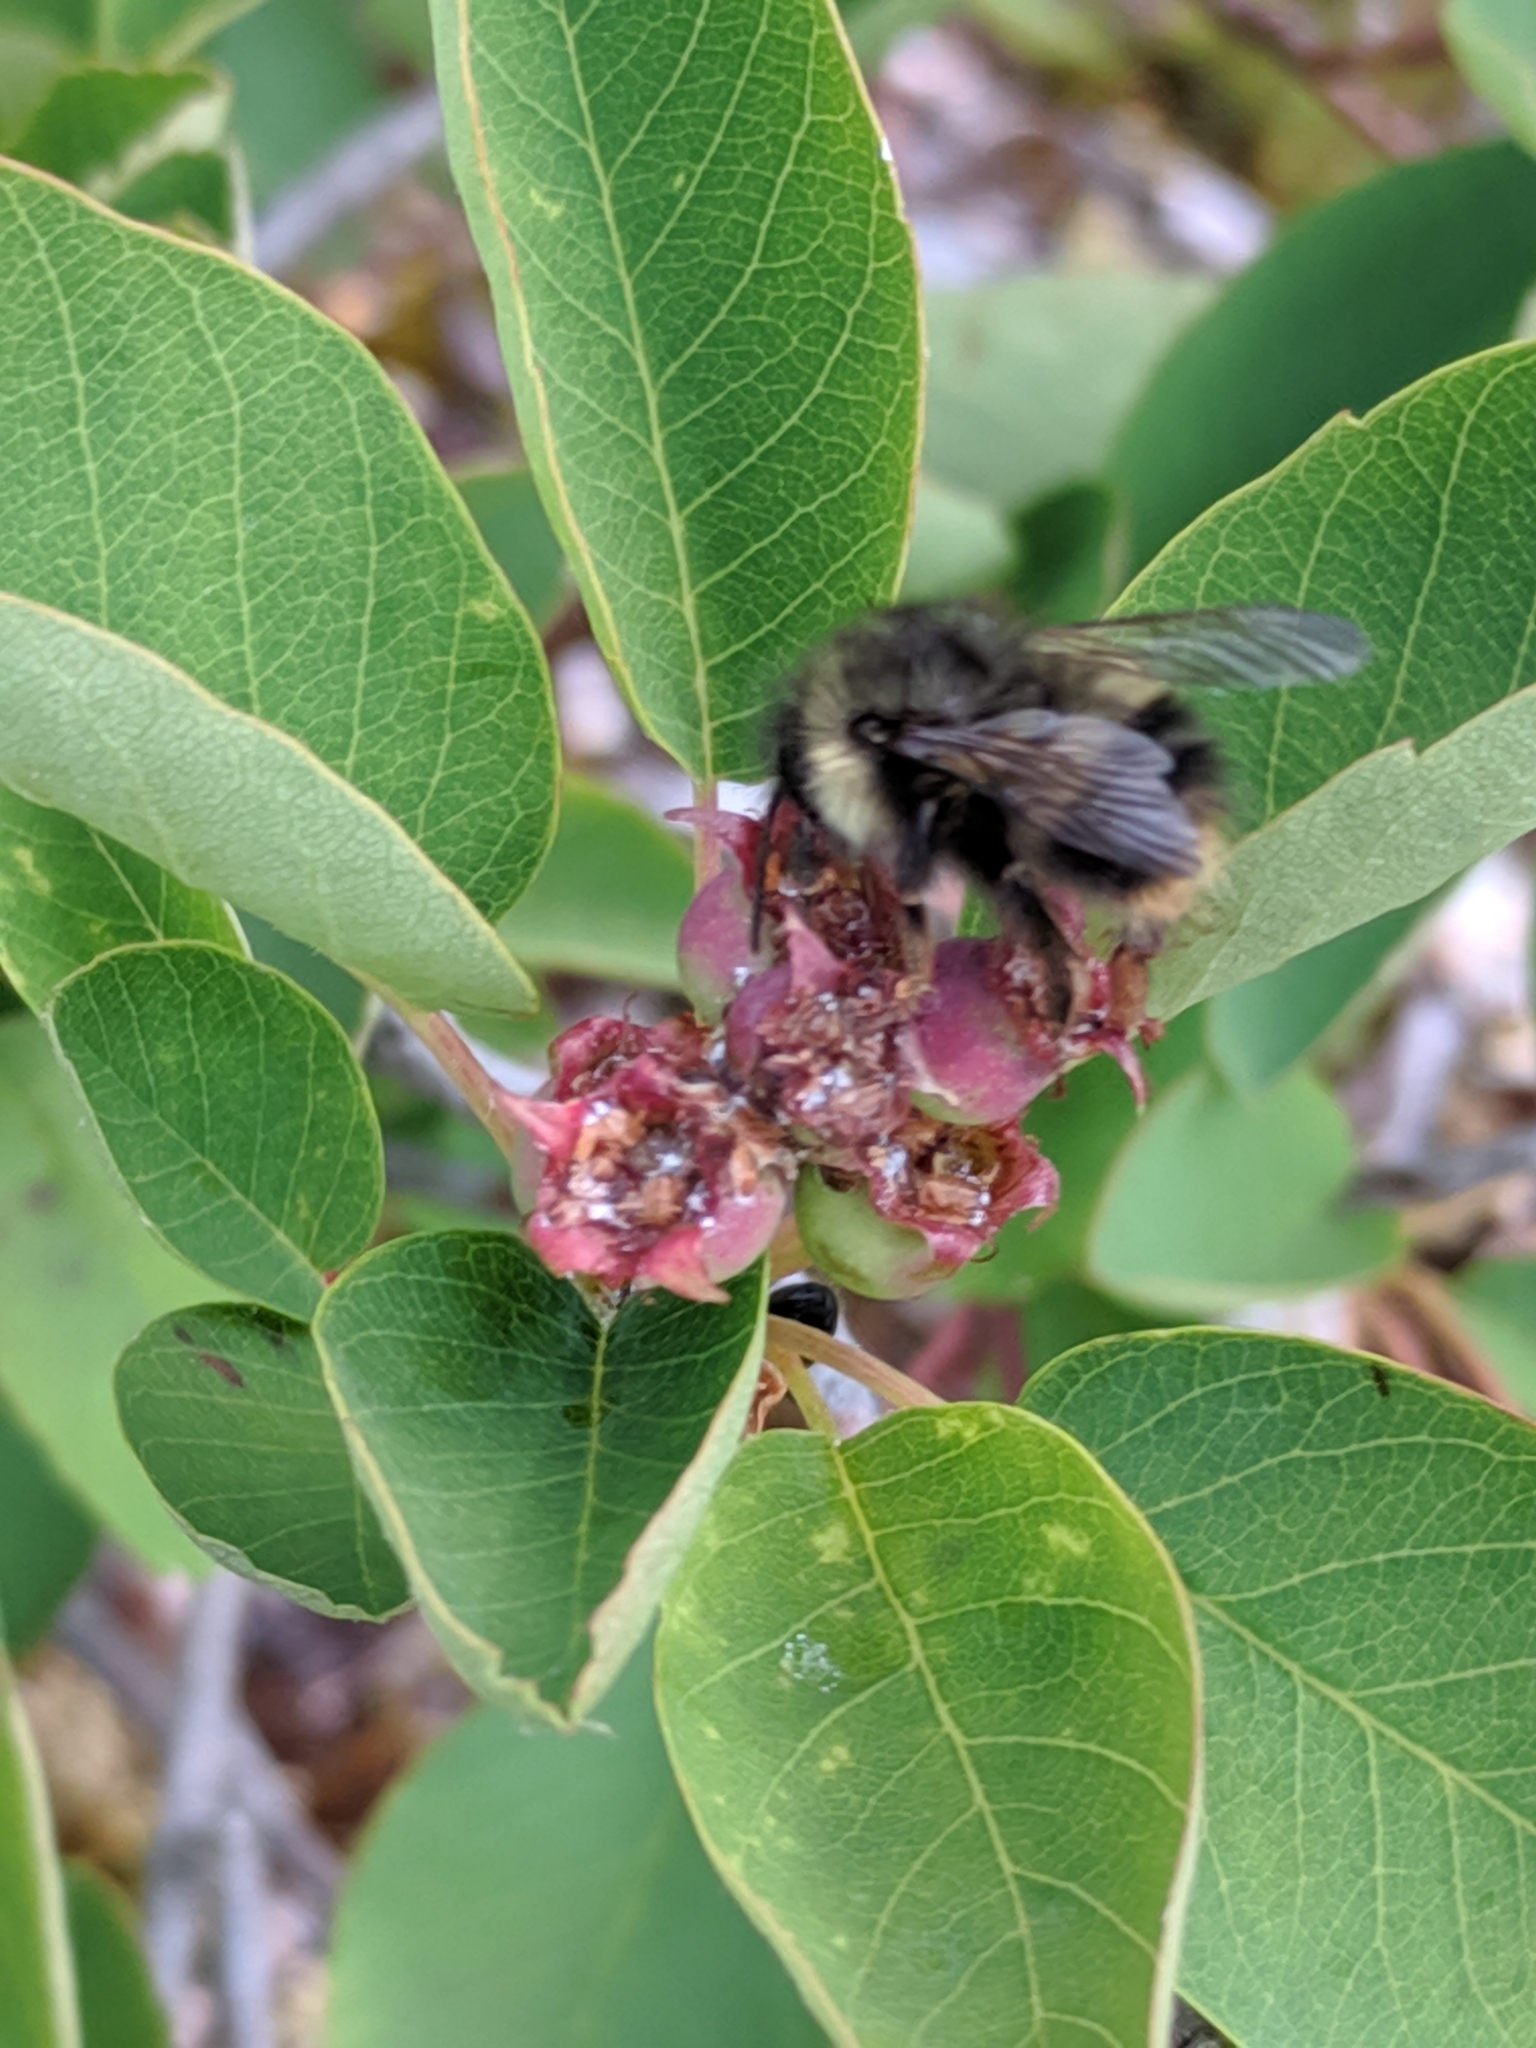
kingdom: Animalia
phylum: Arthropoda
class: Insecta
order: Hymenoptera
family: Apidae
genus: Bombus
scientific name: Bombus sitkensis
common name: Sitka bumble bee
